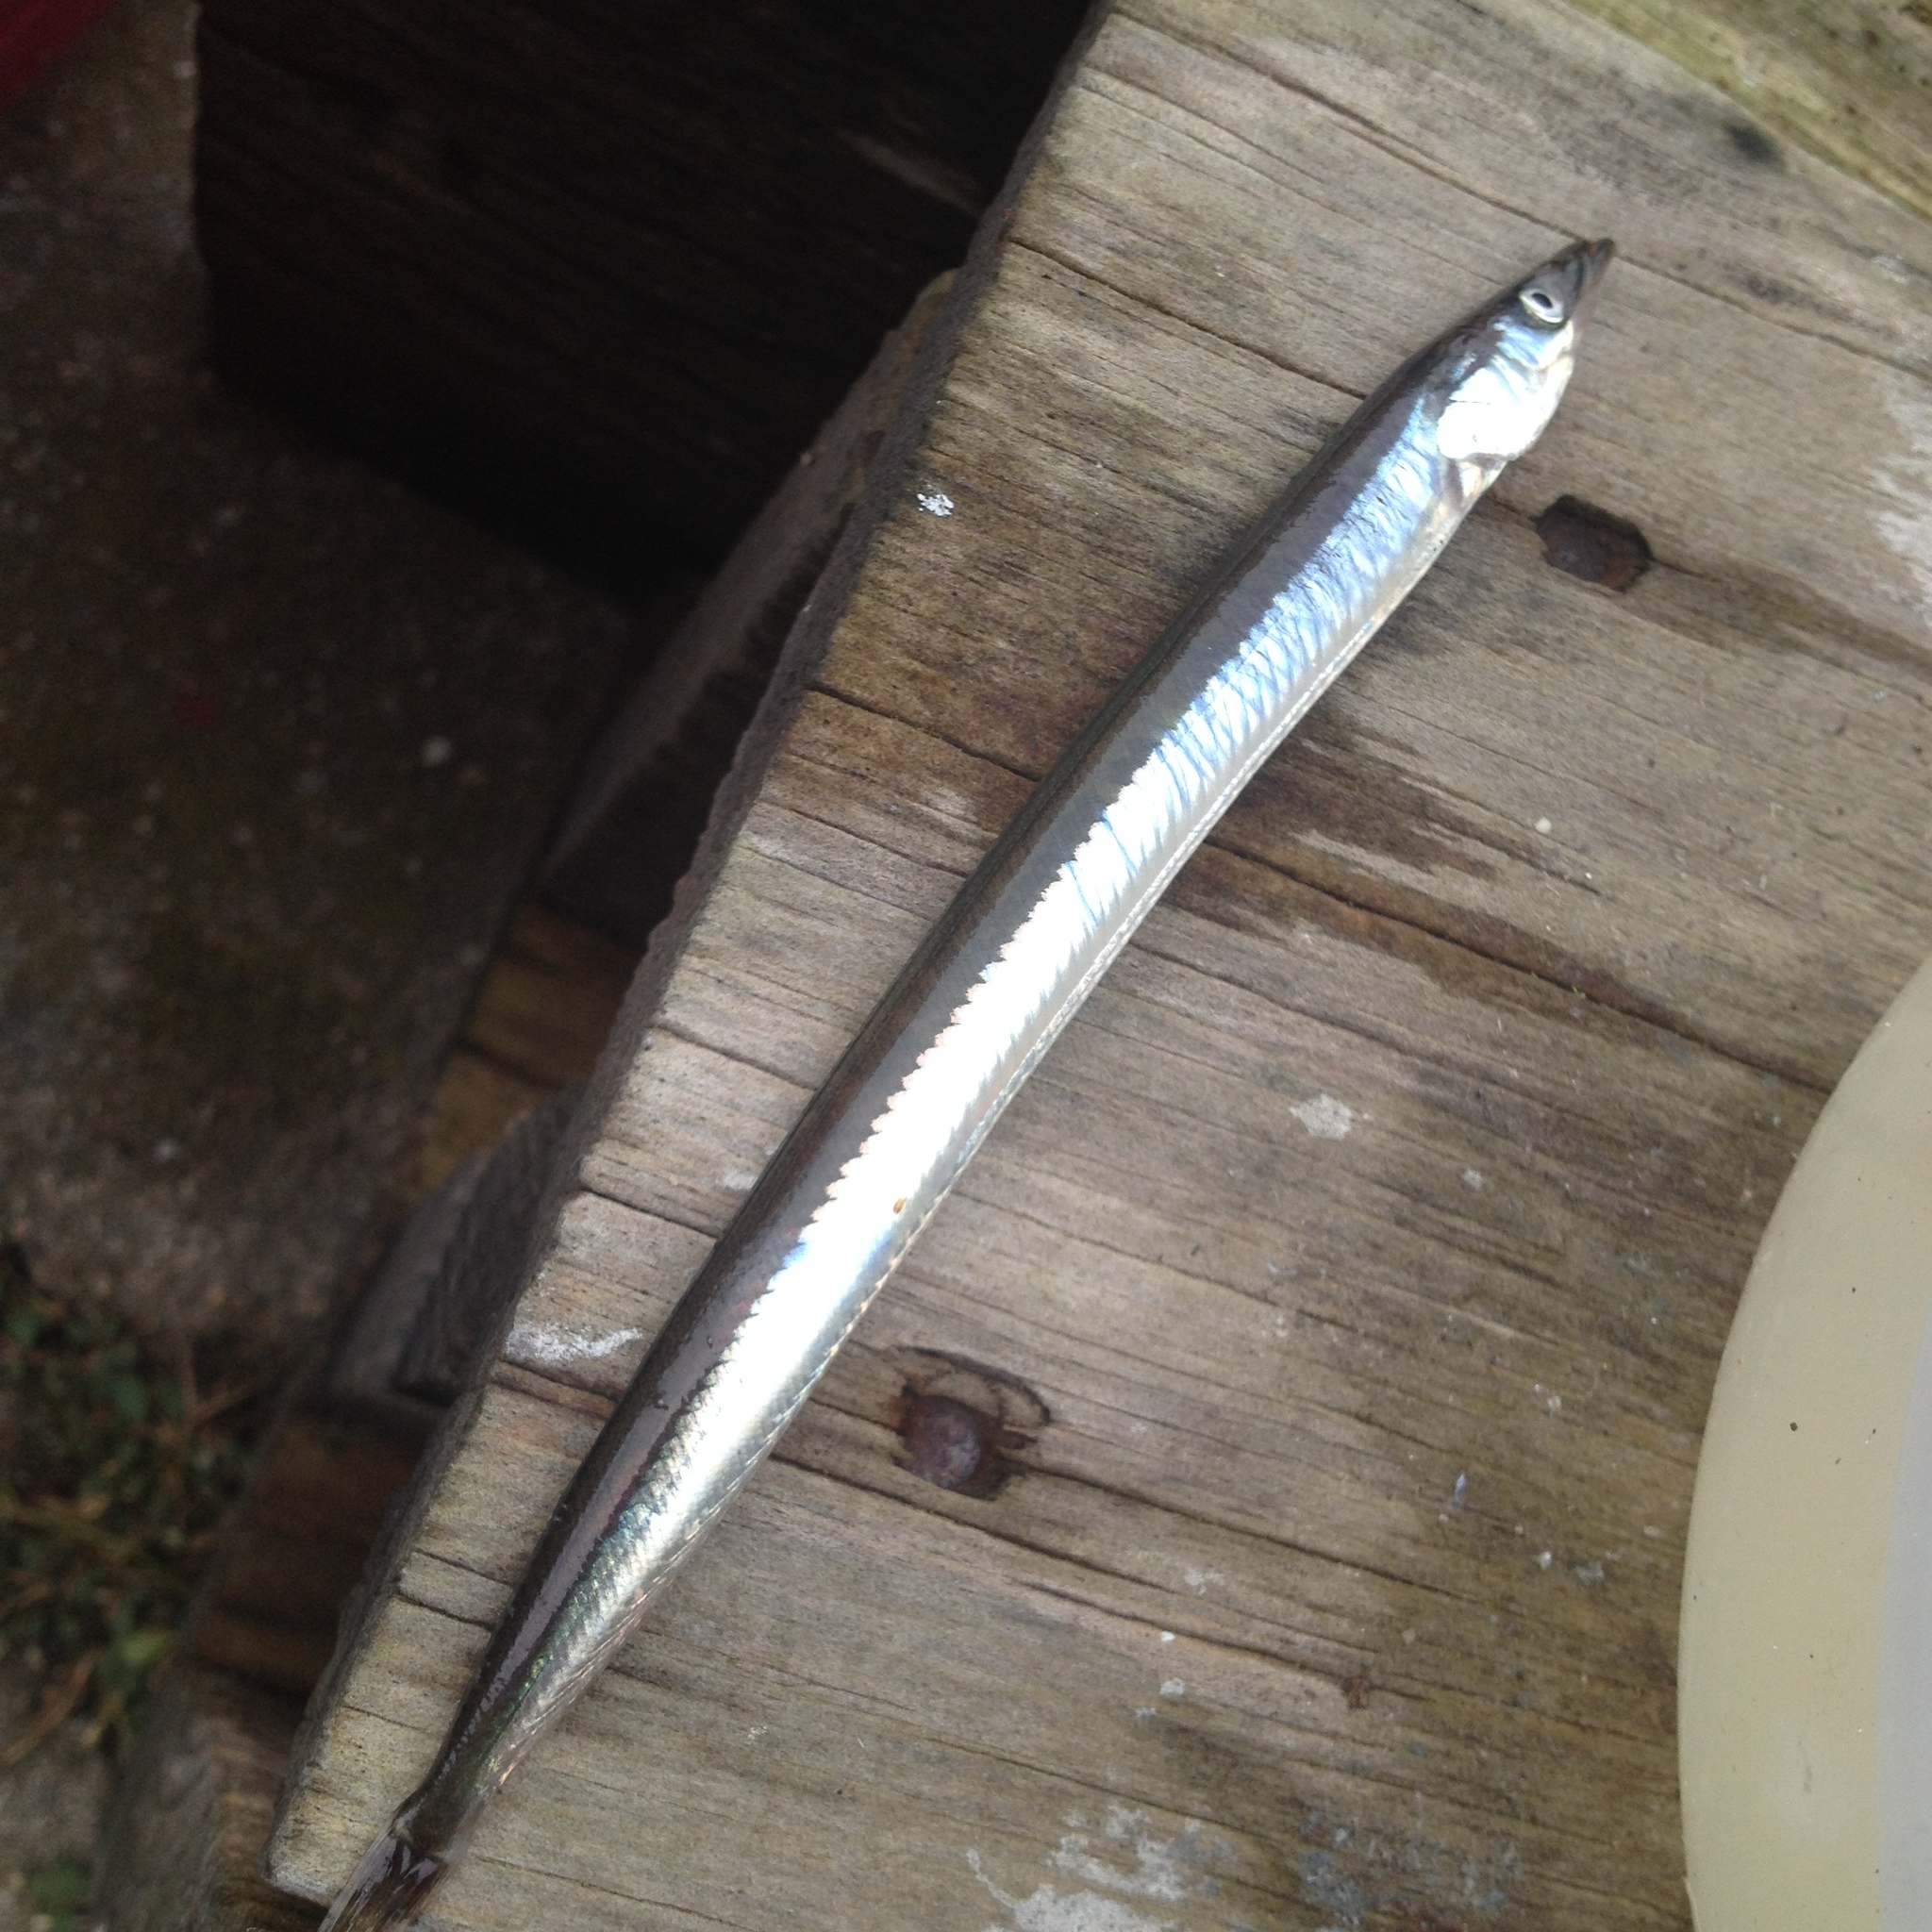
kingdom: Animalia
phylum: Chordata
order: Perciformes
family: Ammodytidae
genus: Ammodytes
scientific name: Ammodytes
